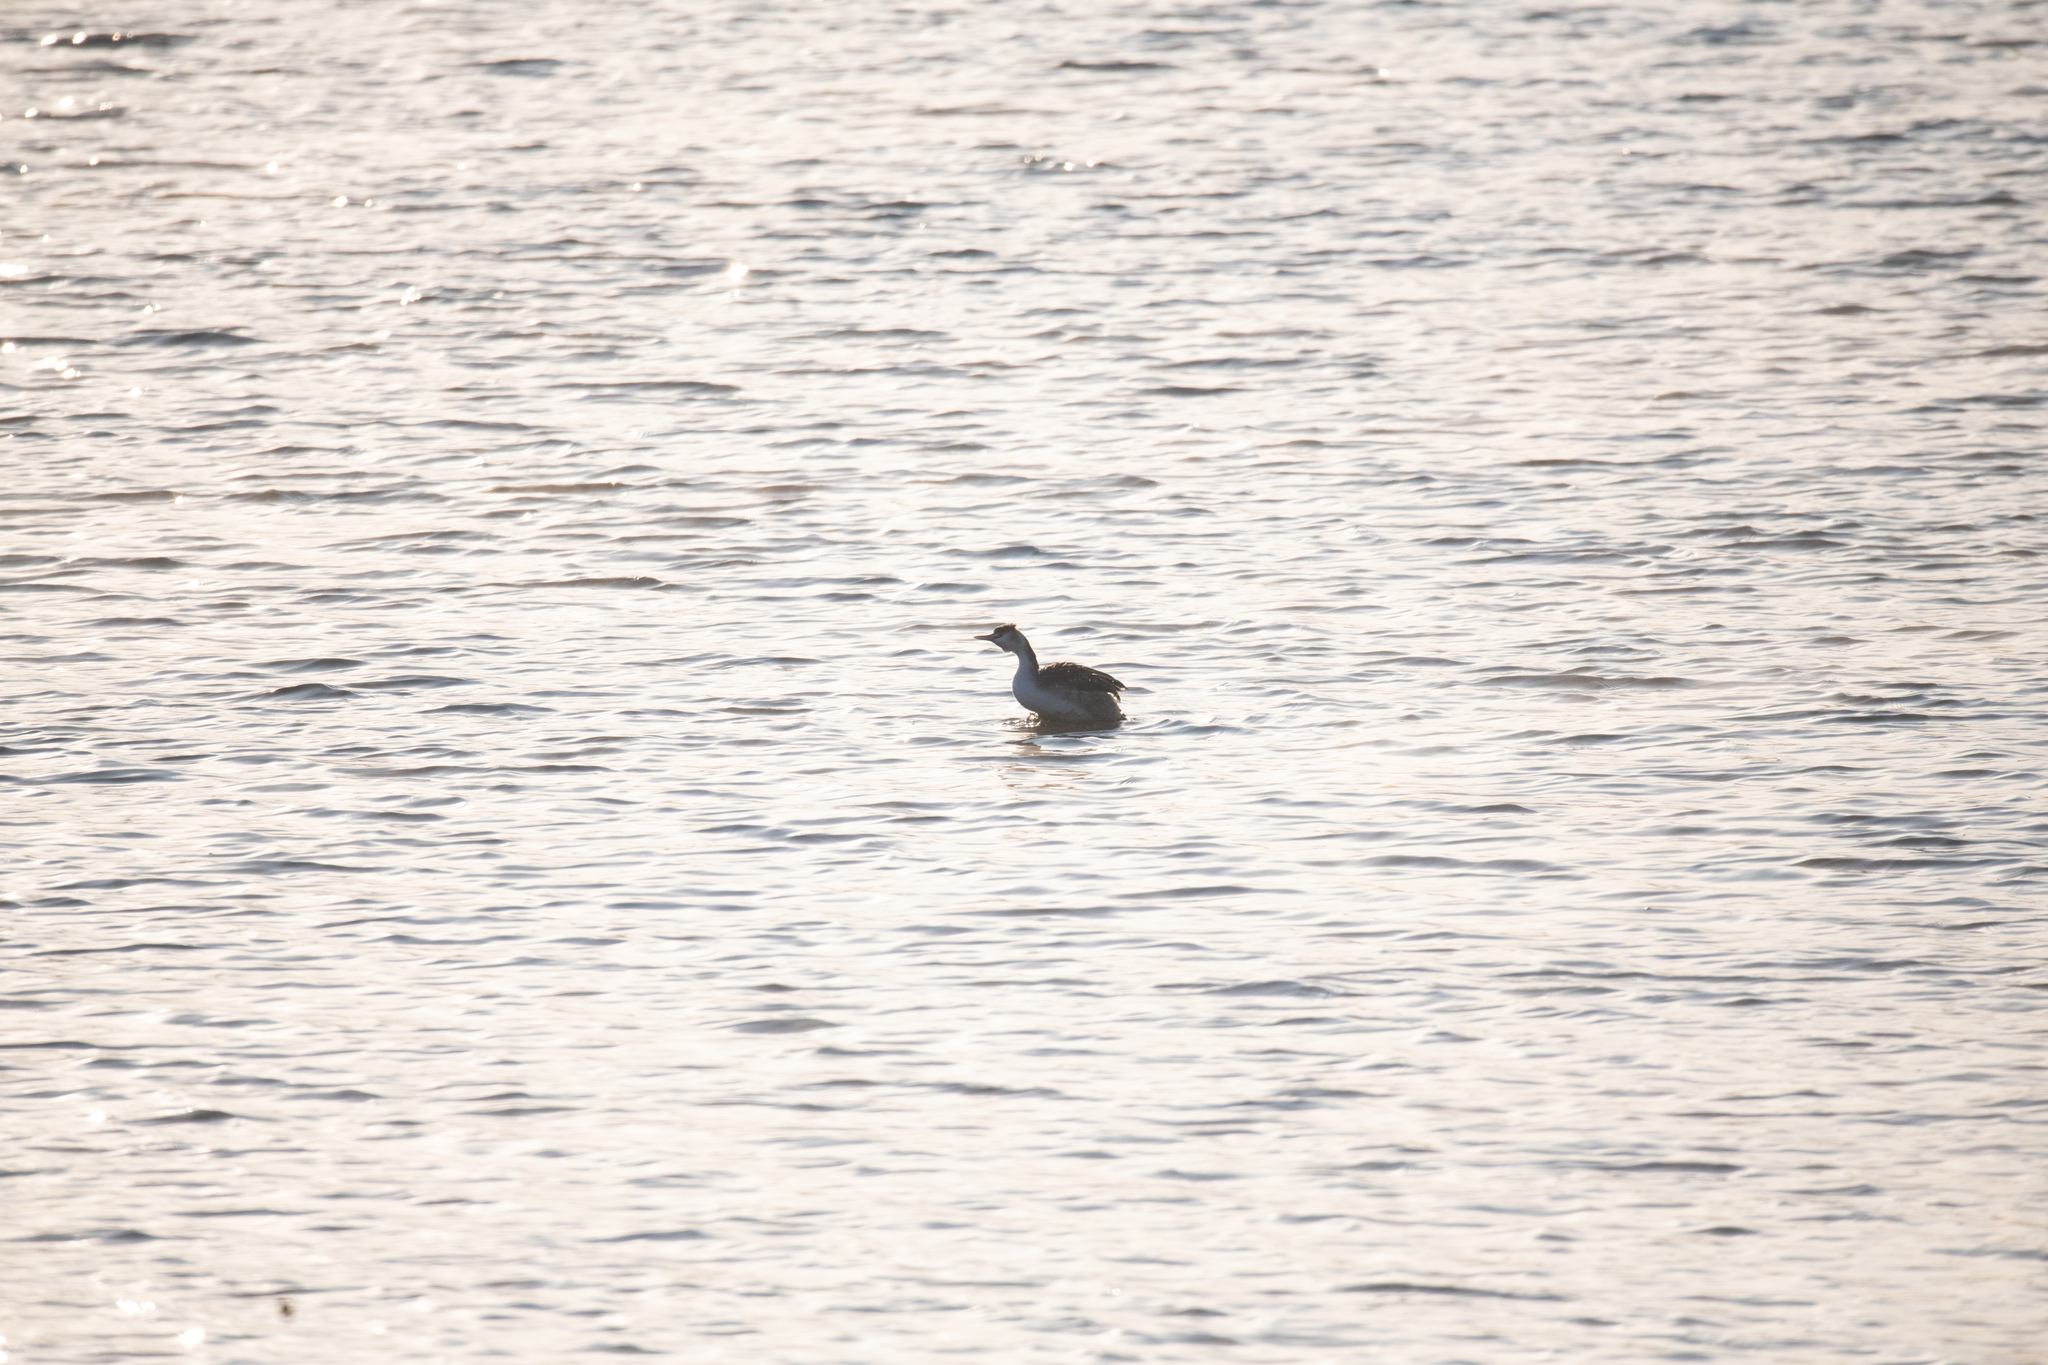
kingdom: Animalia
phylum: Chordata
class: Aves
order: Podicipediformes
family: Podicipedidae
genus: Podiceps
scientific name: Podiceps cristatus
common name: Great crested grebe
